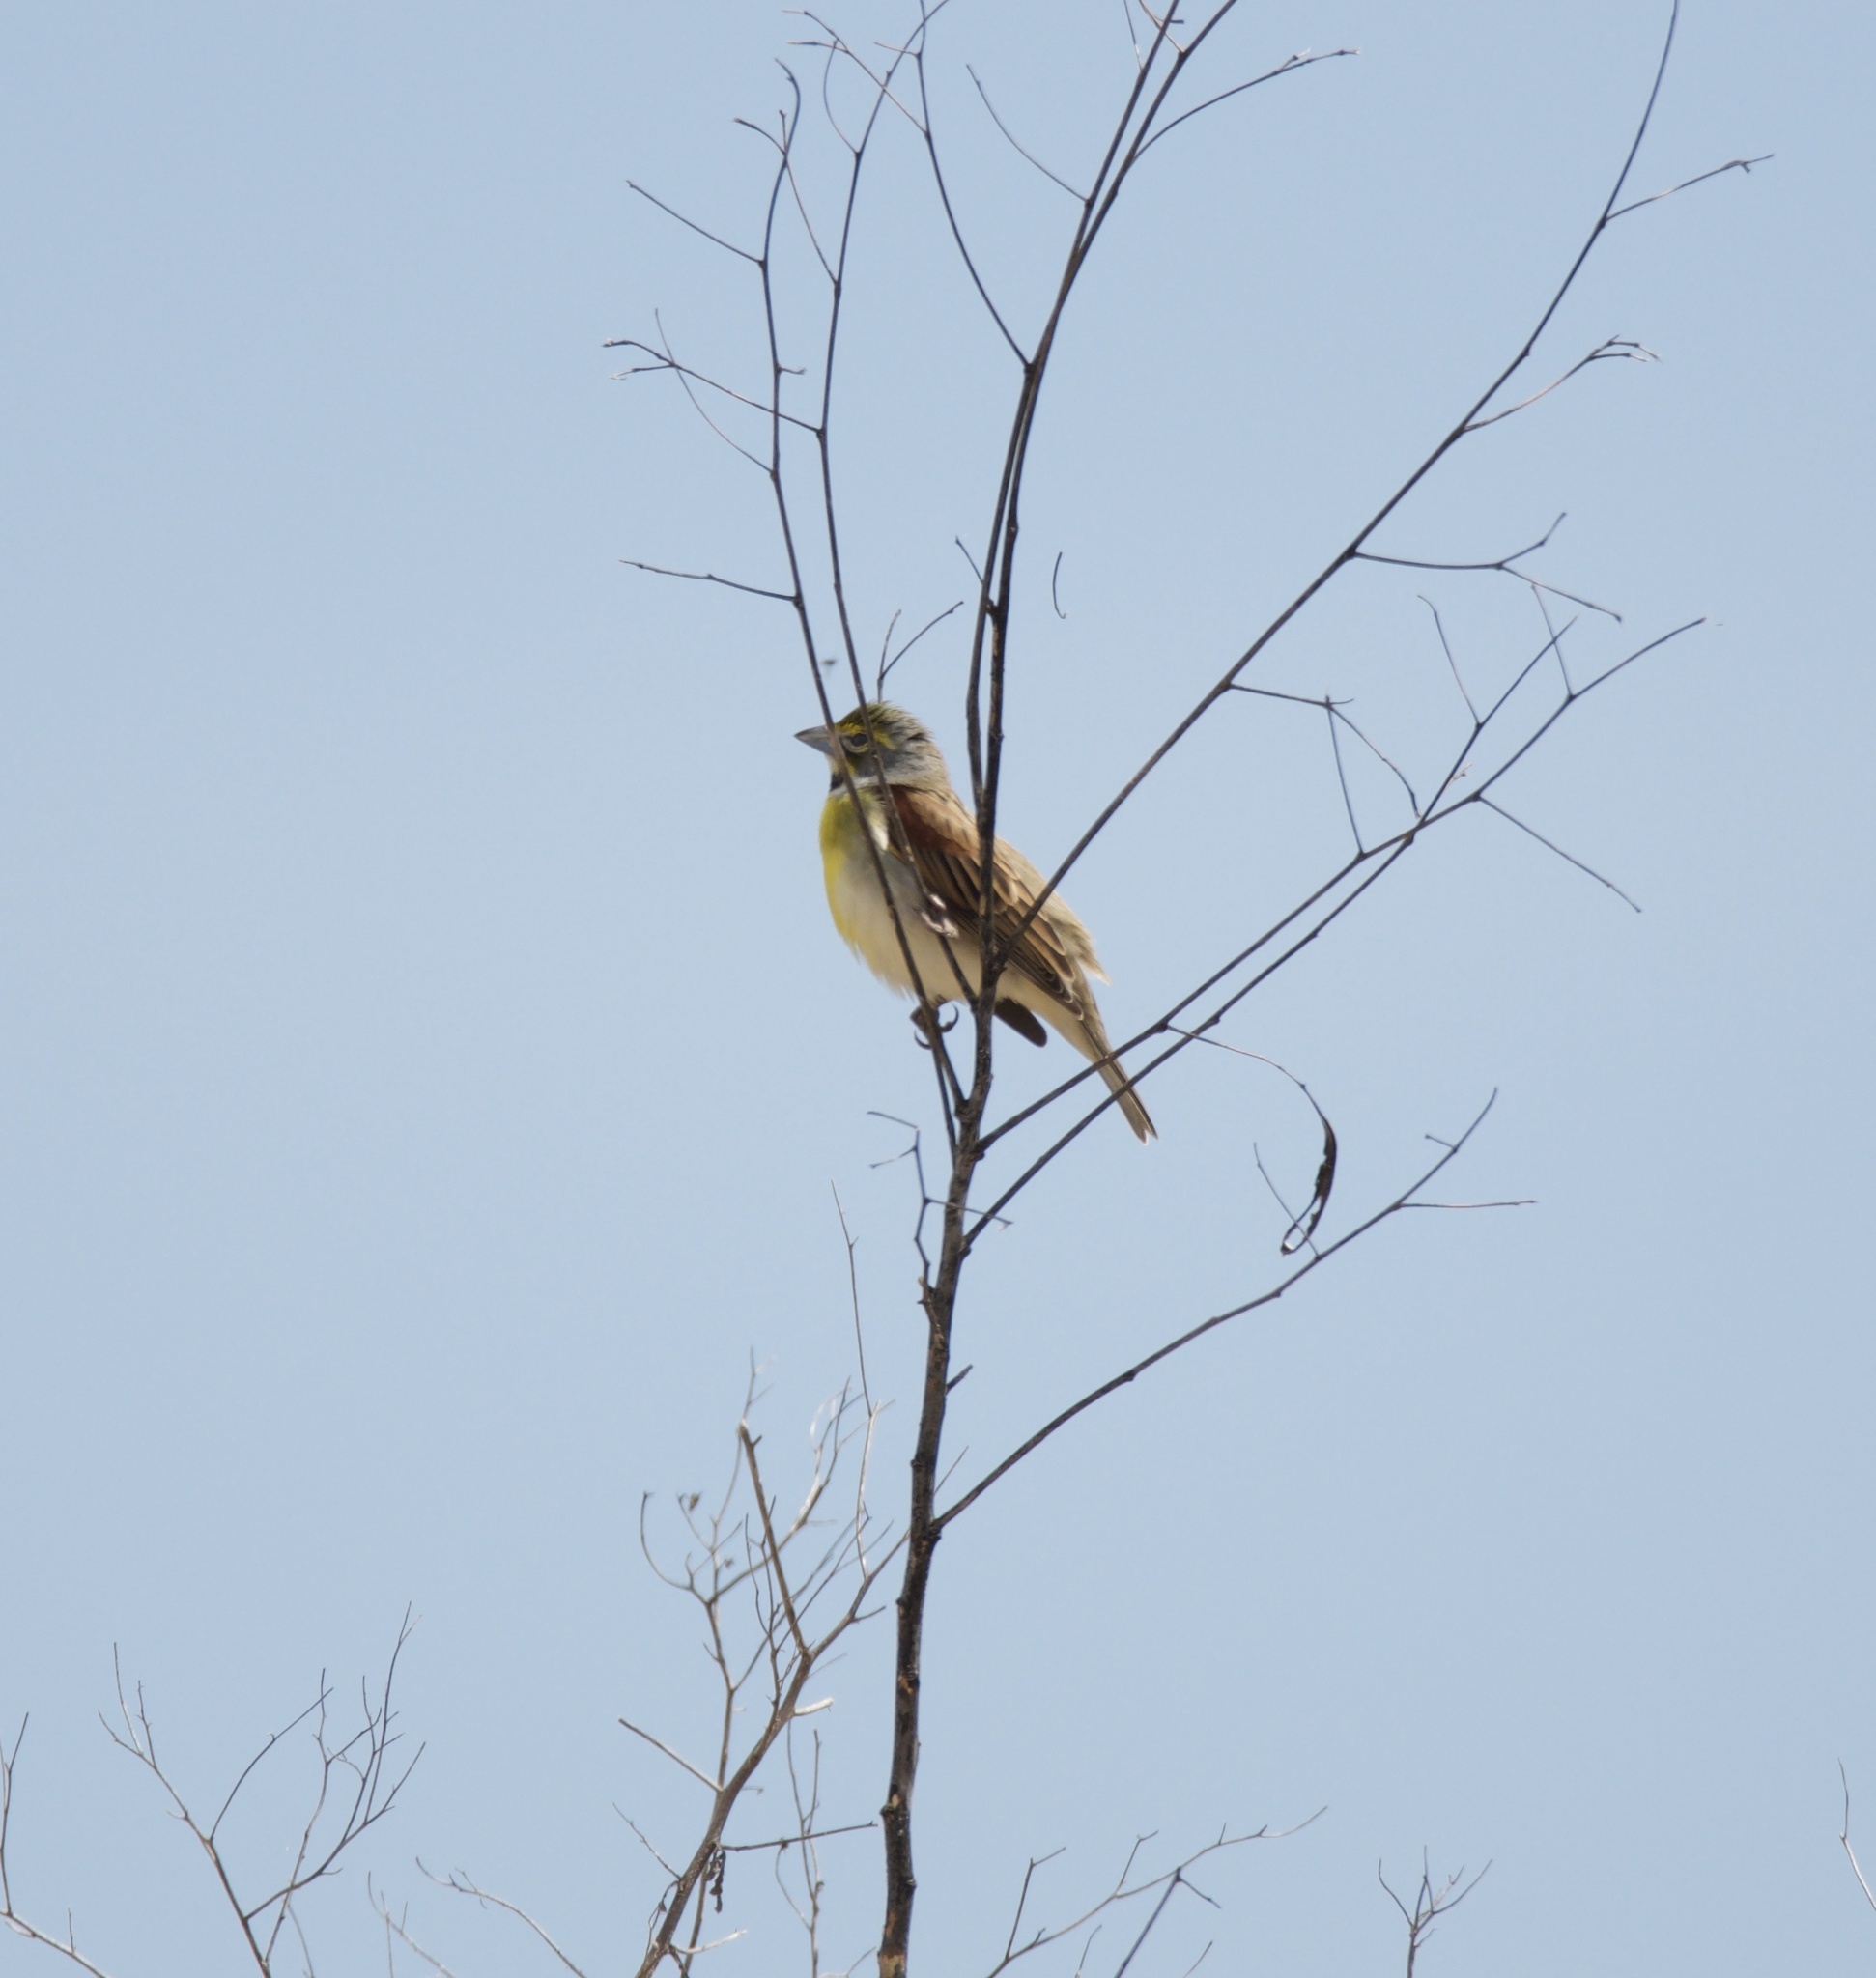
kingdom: Animalia
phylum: Chordata
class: Aves
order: Passeriformes
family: Cardinalidae
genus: Spiza
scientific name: Spiza americana
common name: Dickcissel
